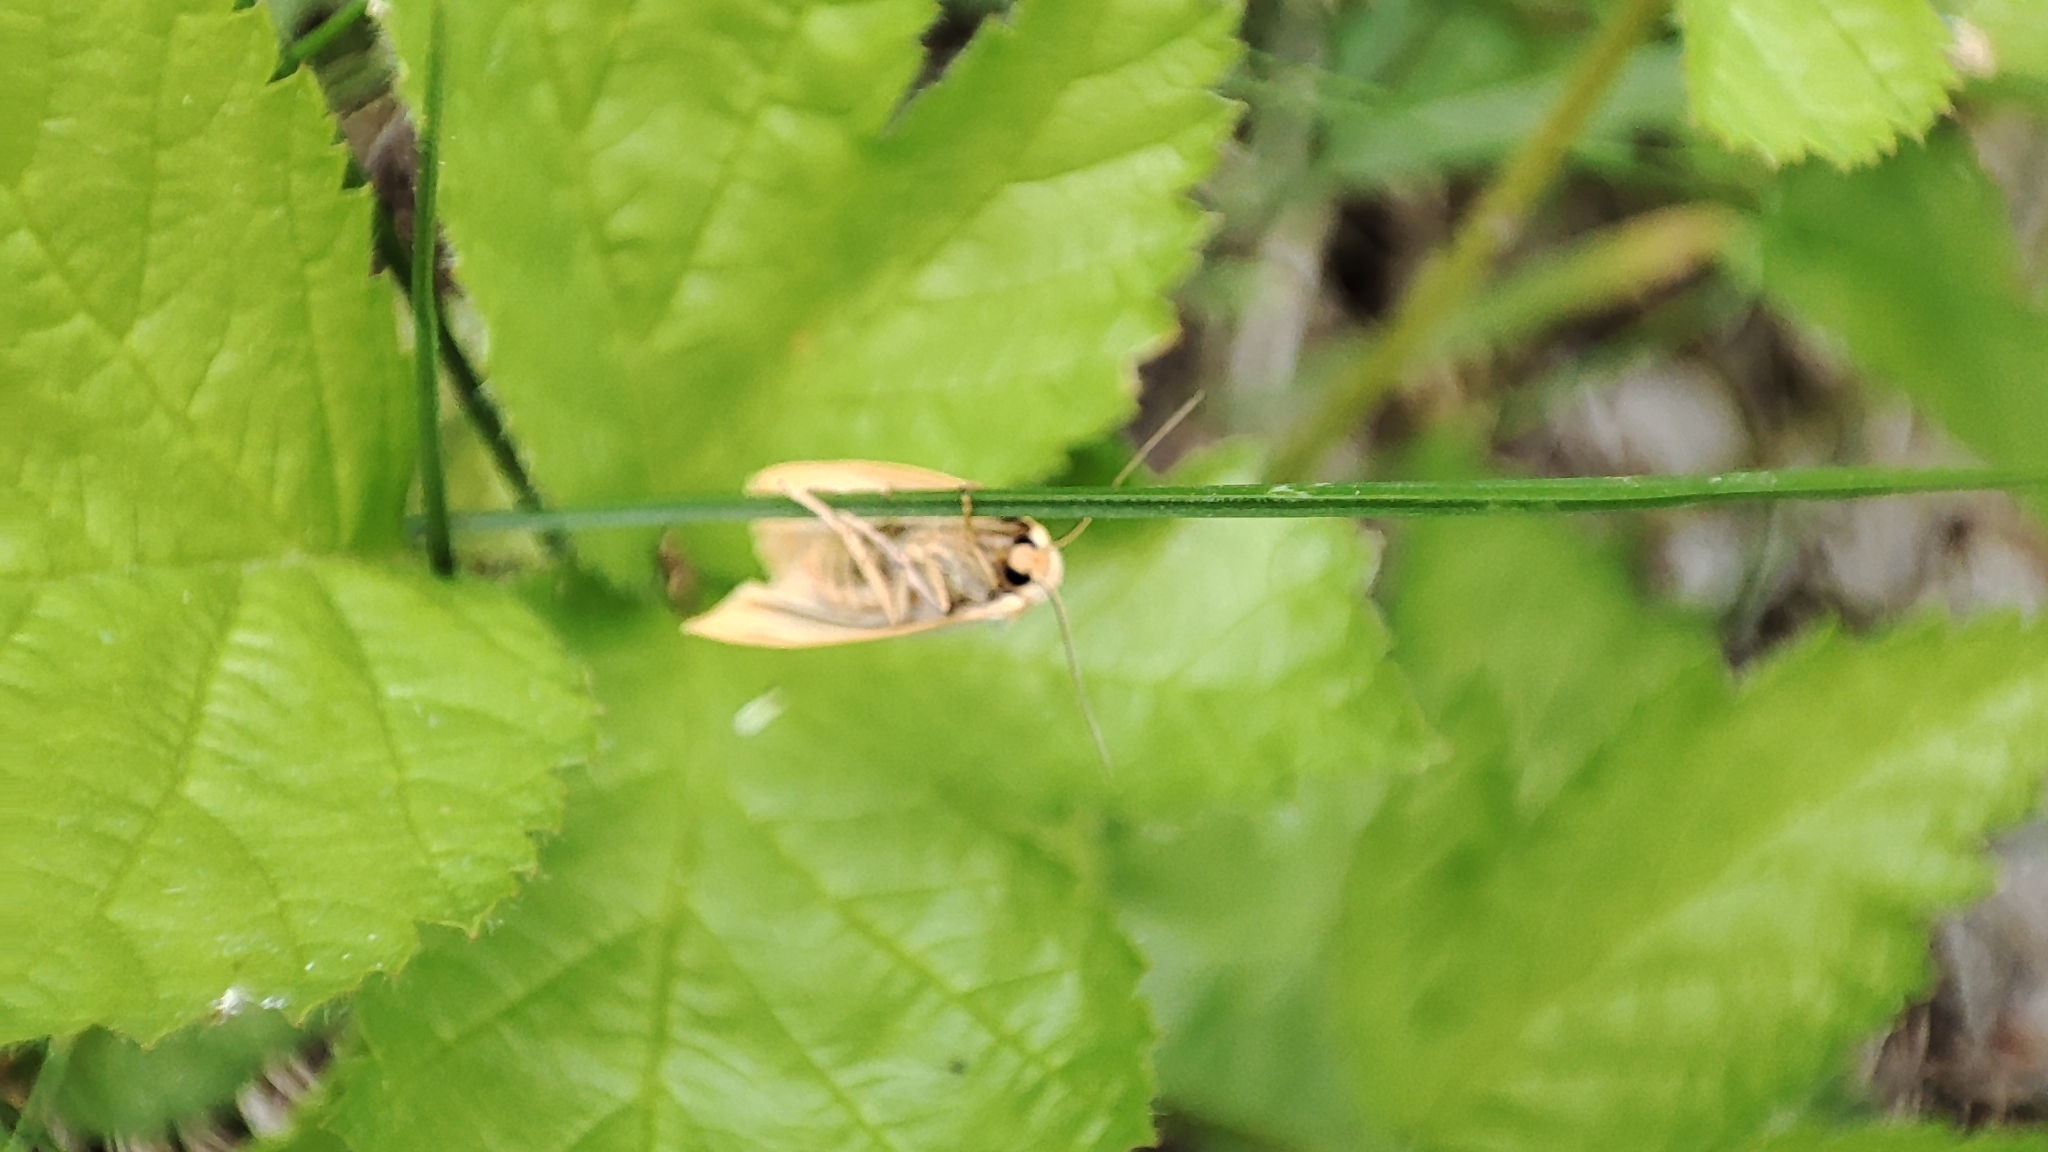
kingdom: Animalia
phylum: Arthropoda
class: Insecta
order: Lepidoptera
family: Erebidae
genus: Cybosia
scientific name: Cybosia mesomella
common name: Four-dotted footman
